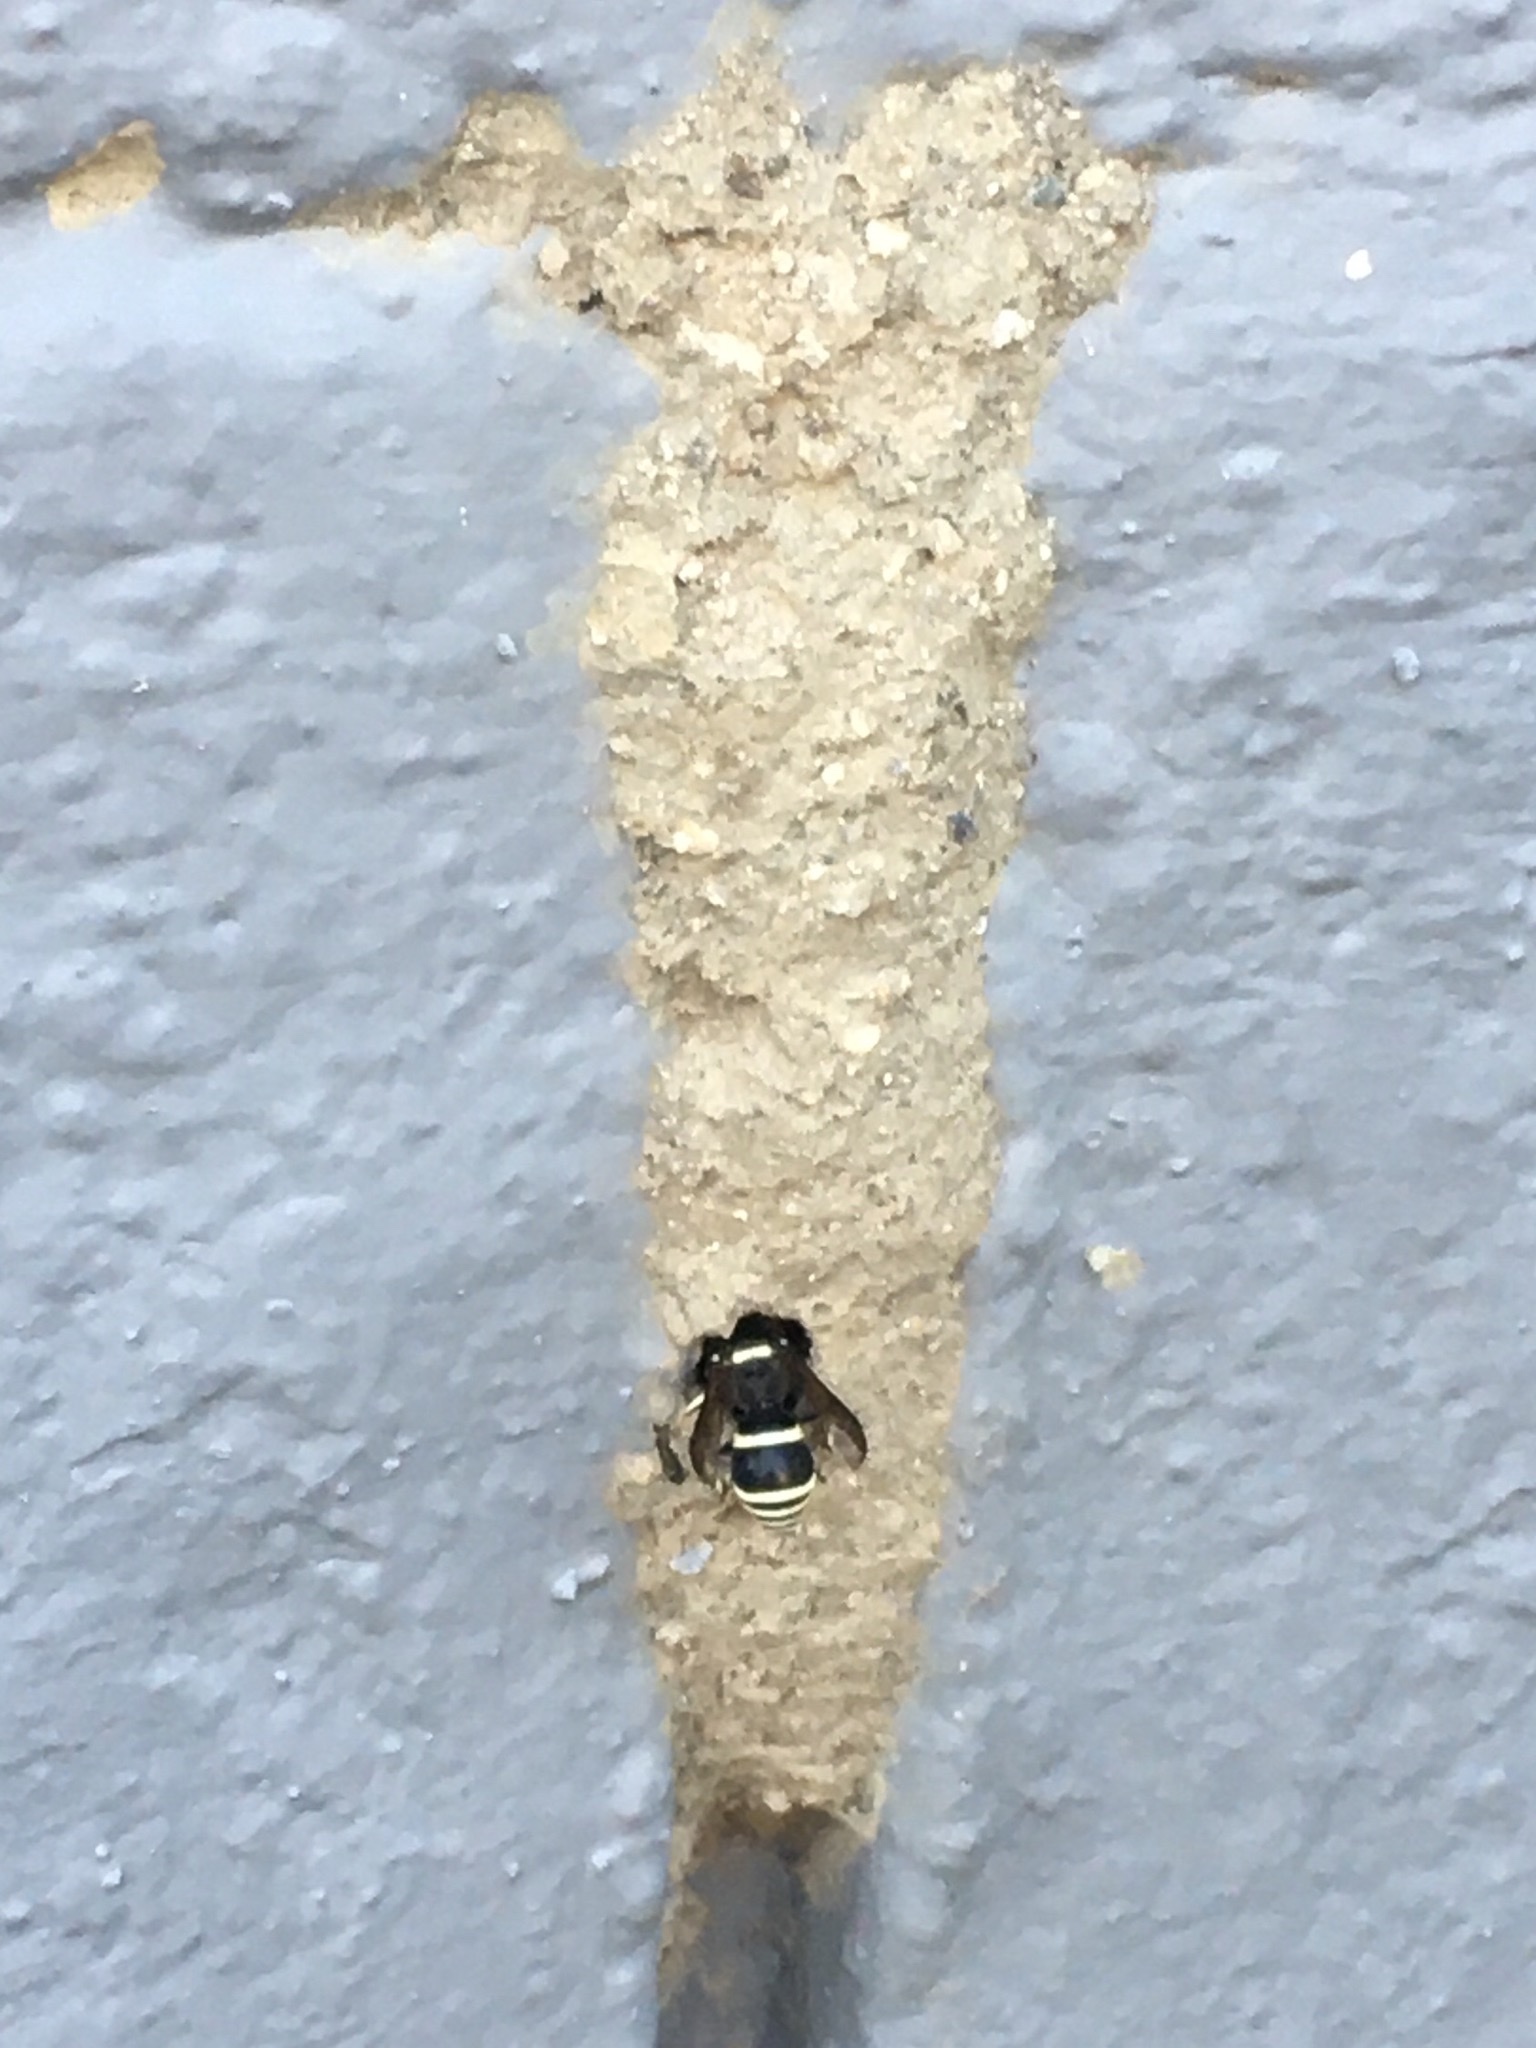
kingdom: Animalia
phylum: Arthropoda
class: Insecta
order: Hymenoptera
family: Vespidae
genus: Ancistrocerus
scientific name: Ancistrocerus waldenii
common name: Walden’s potter wasp
